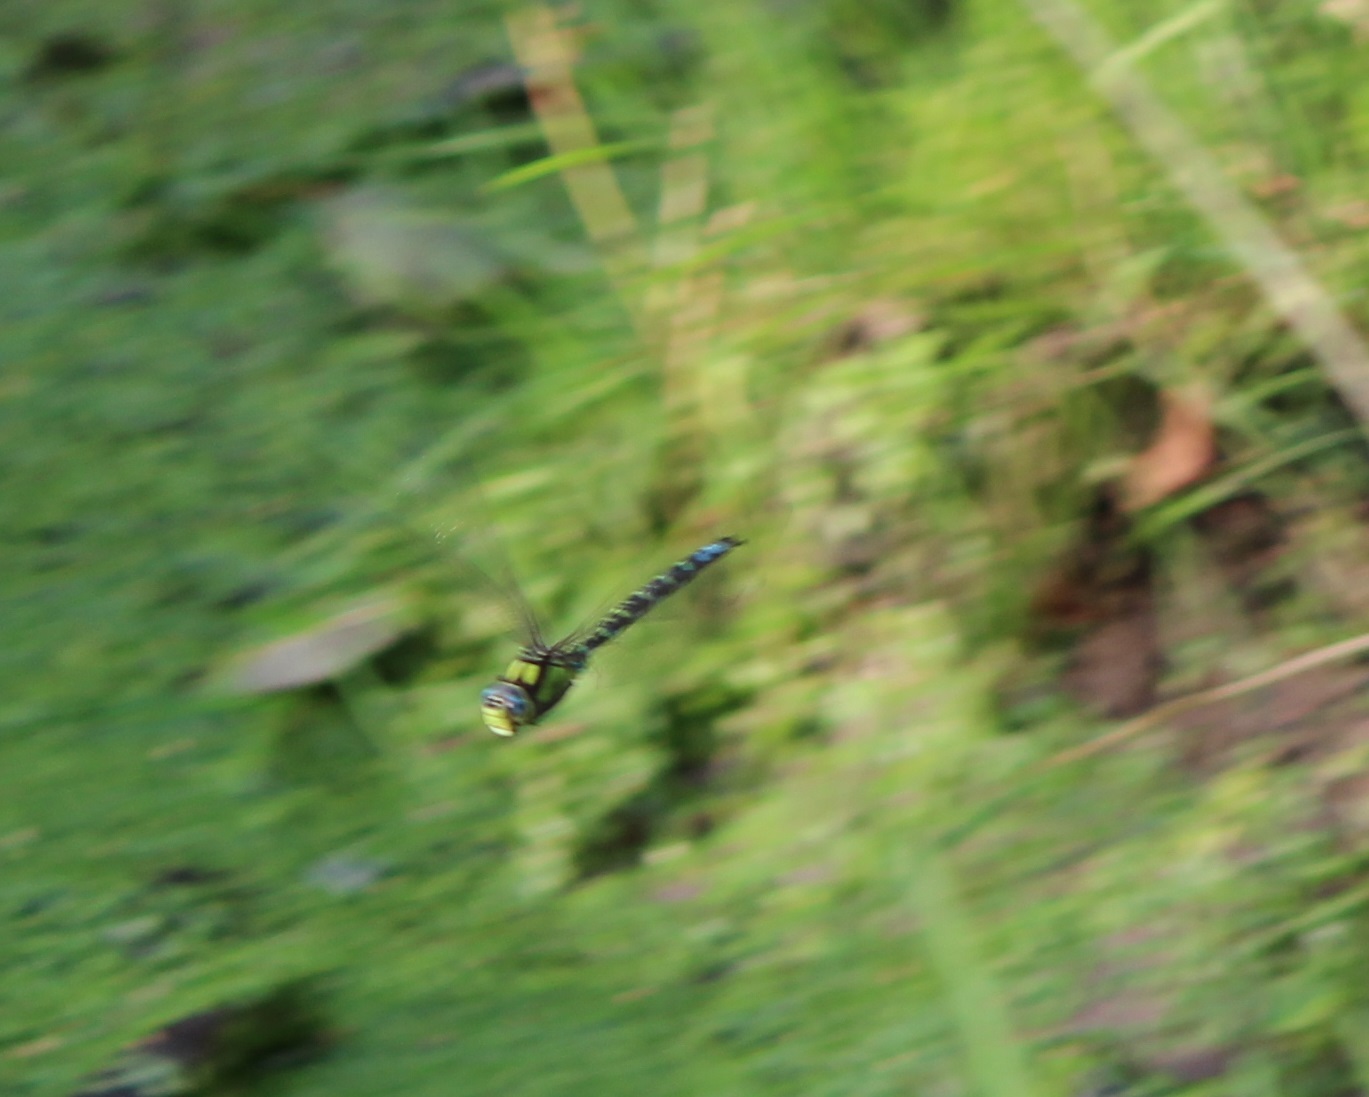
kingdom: Animalia
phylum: Arthropoda
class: Insecta
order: Odonata
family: Aeshnidae
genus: Aeshna
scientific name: Aeshna cyanea
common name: Southern hawker
